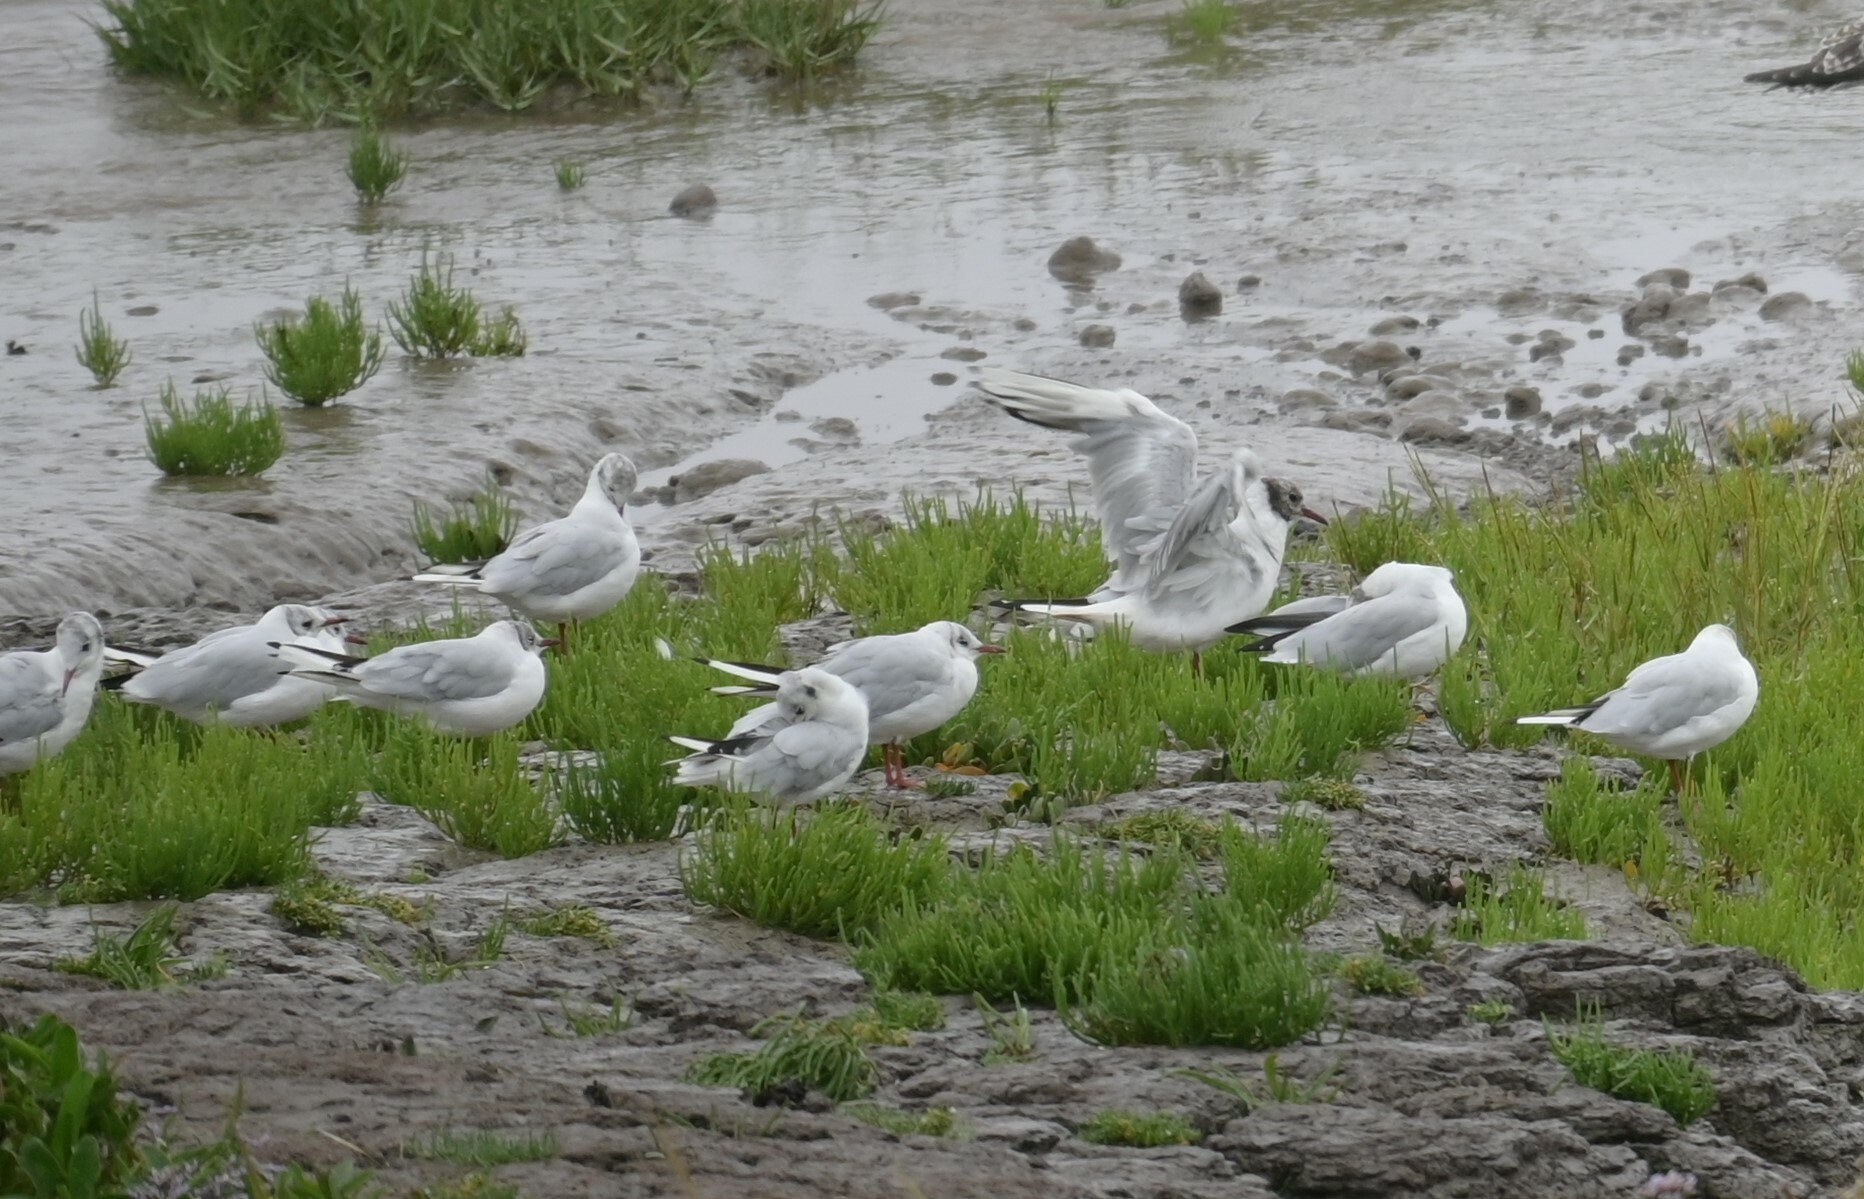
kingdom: Animalia
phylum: Chordata
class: Aves
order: Charadriiformes
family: Laridae
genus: Chroicocephalus
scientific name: Chroicocephalus ridibundus
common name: Black-headed gull
